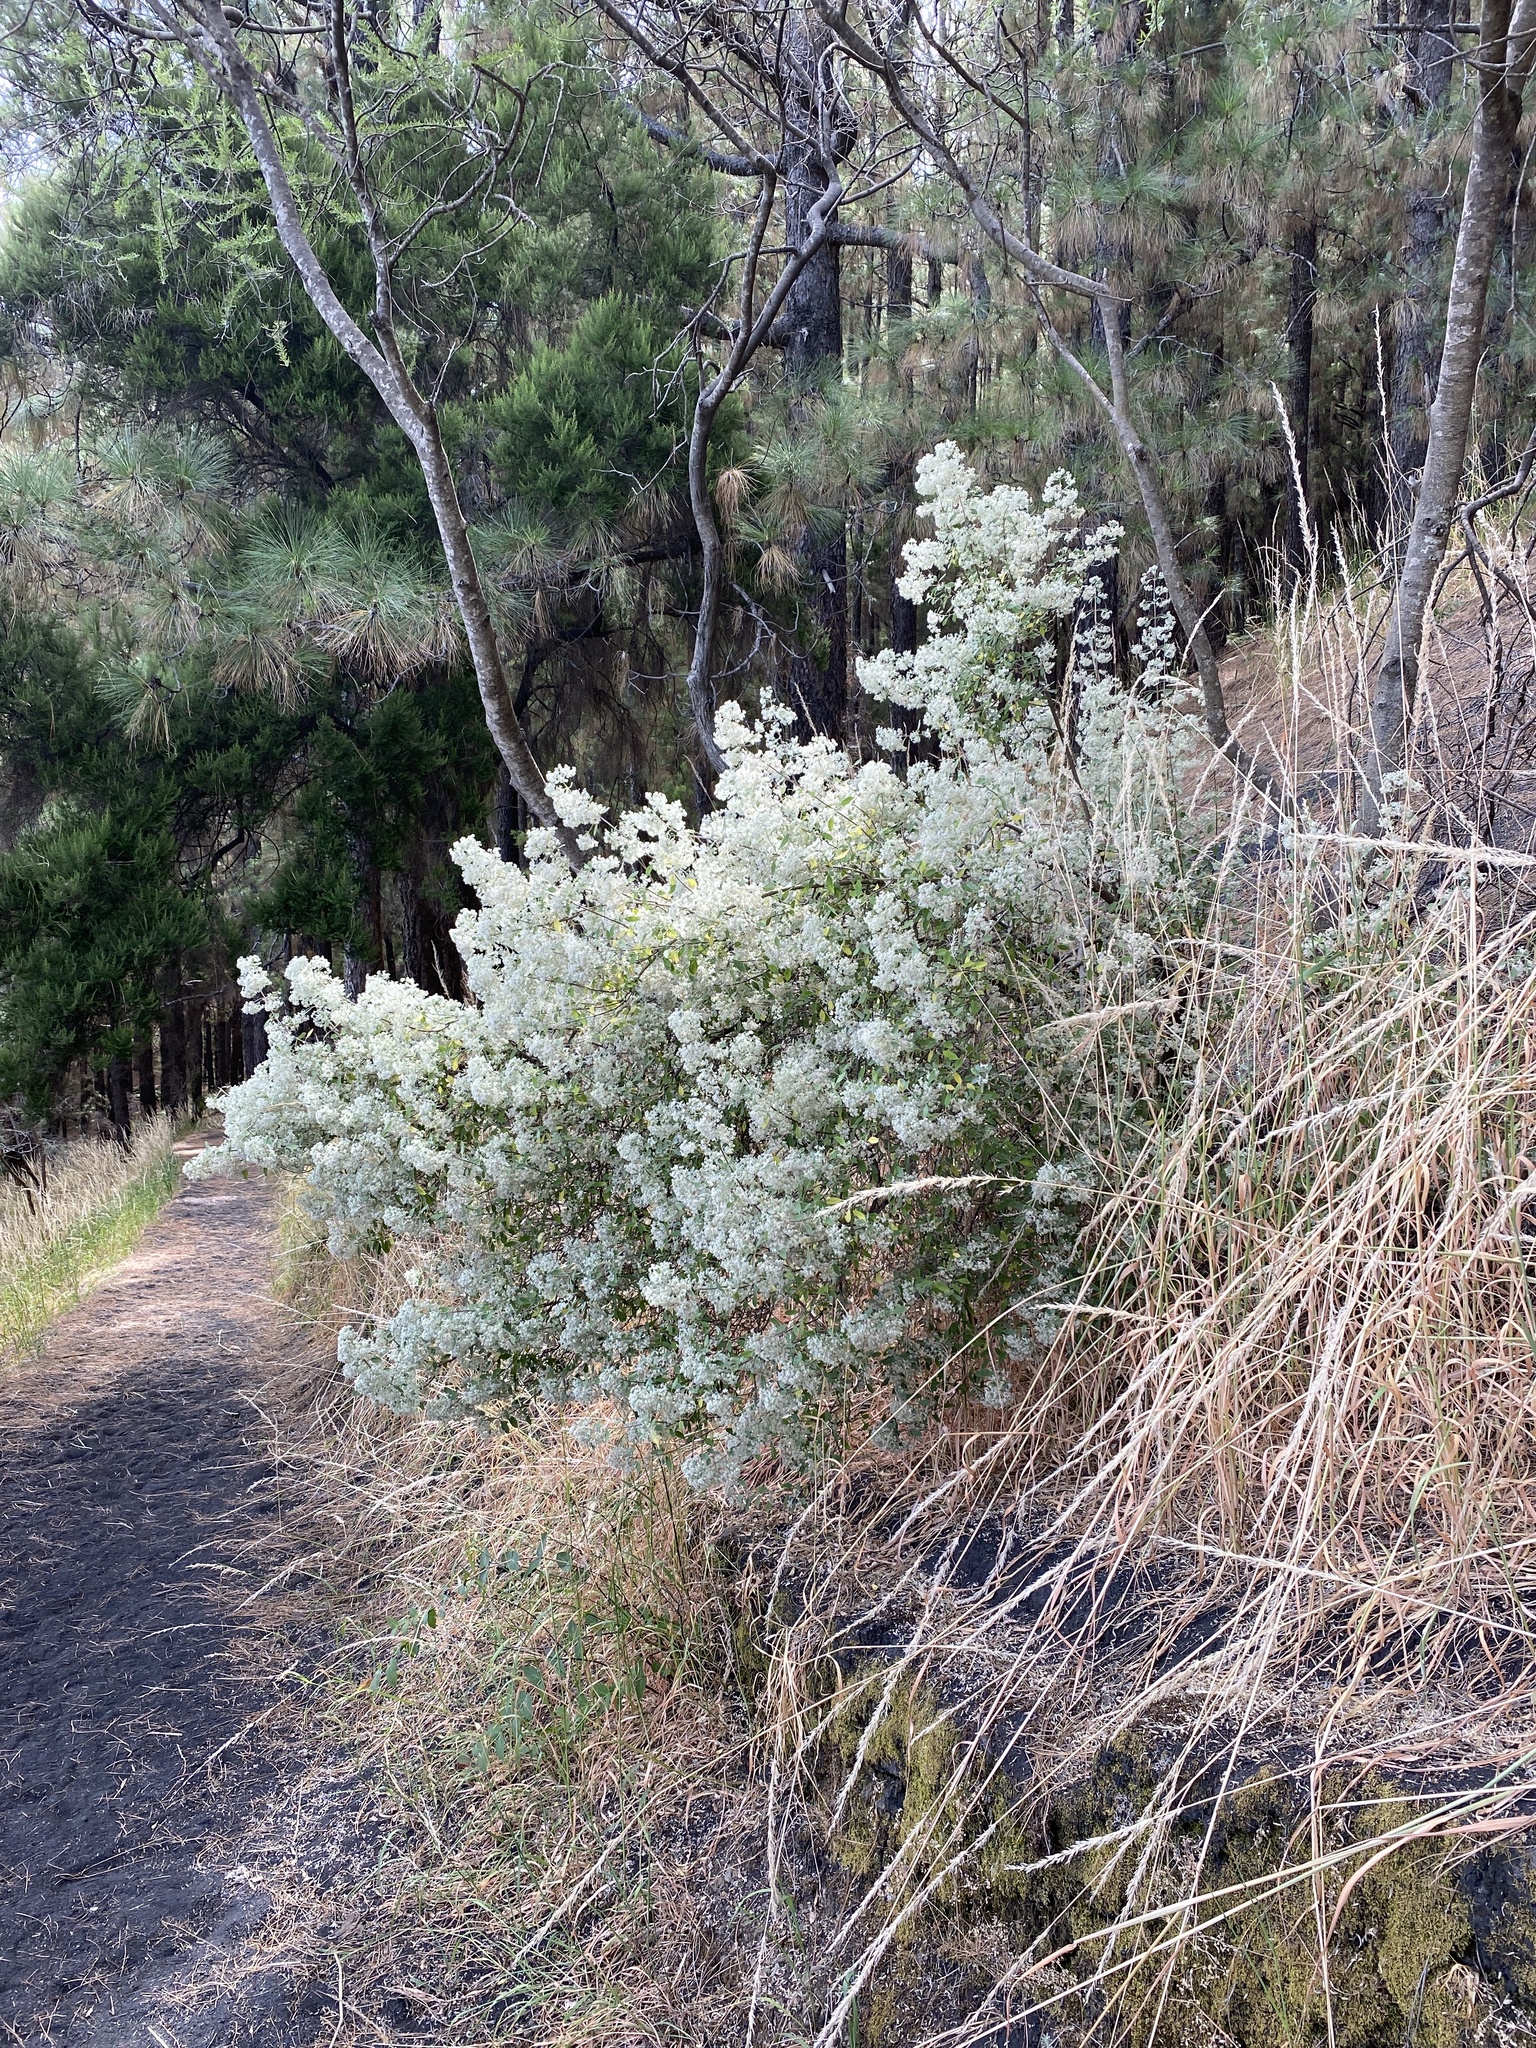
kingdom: Plantae
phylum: Tracheophyta
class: Magnoliopsida
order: Lamiales
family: Lamiaceae
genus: Bystropogon
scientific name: Bystropogon origanifolius
